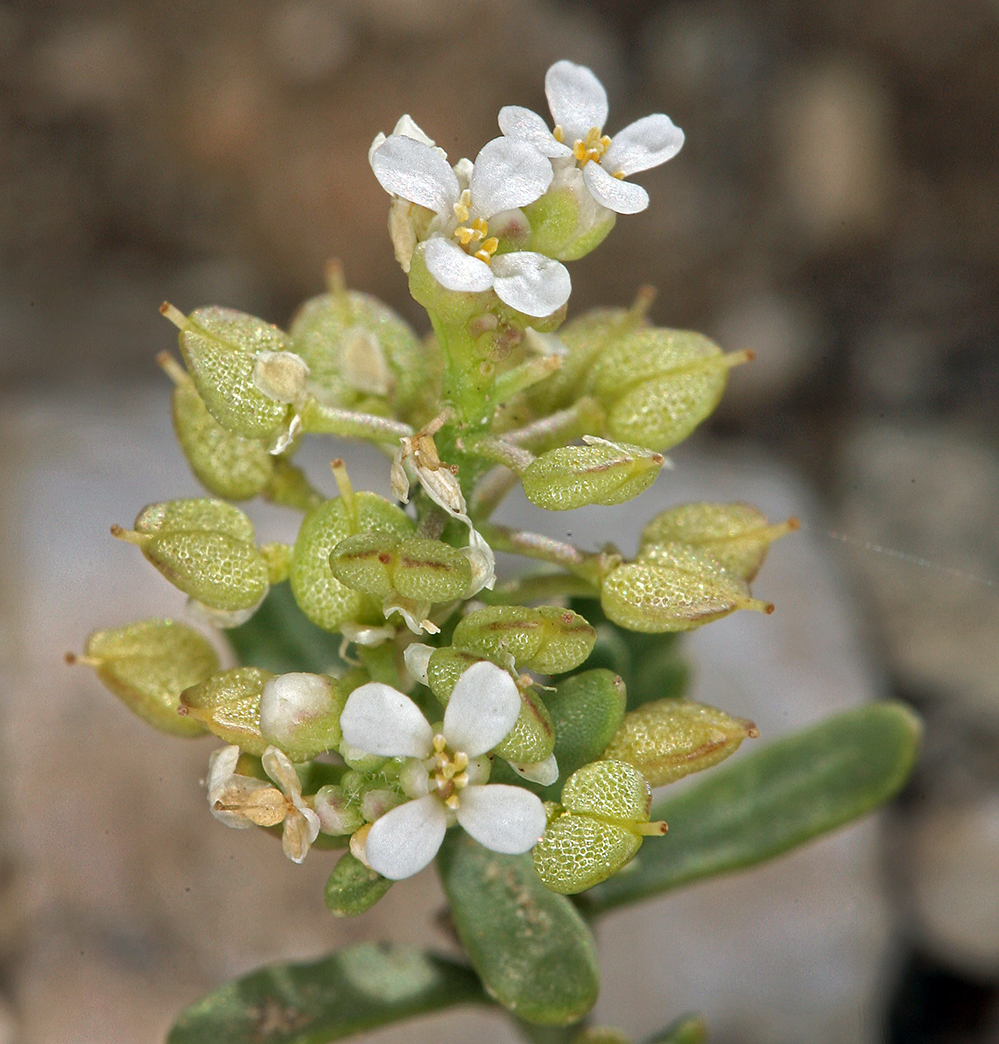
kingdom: Plantae
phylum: Tracheophyta
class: Magnoliopsida
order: Brassicales
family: Brassicaceae
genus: Lepidium
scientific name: Lepidium montanum
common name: Mountain pepperplant
